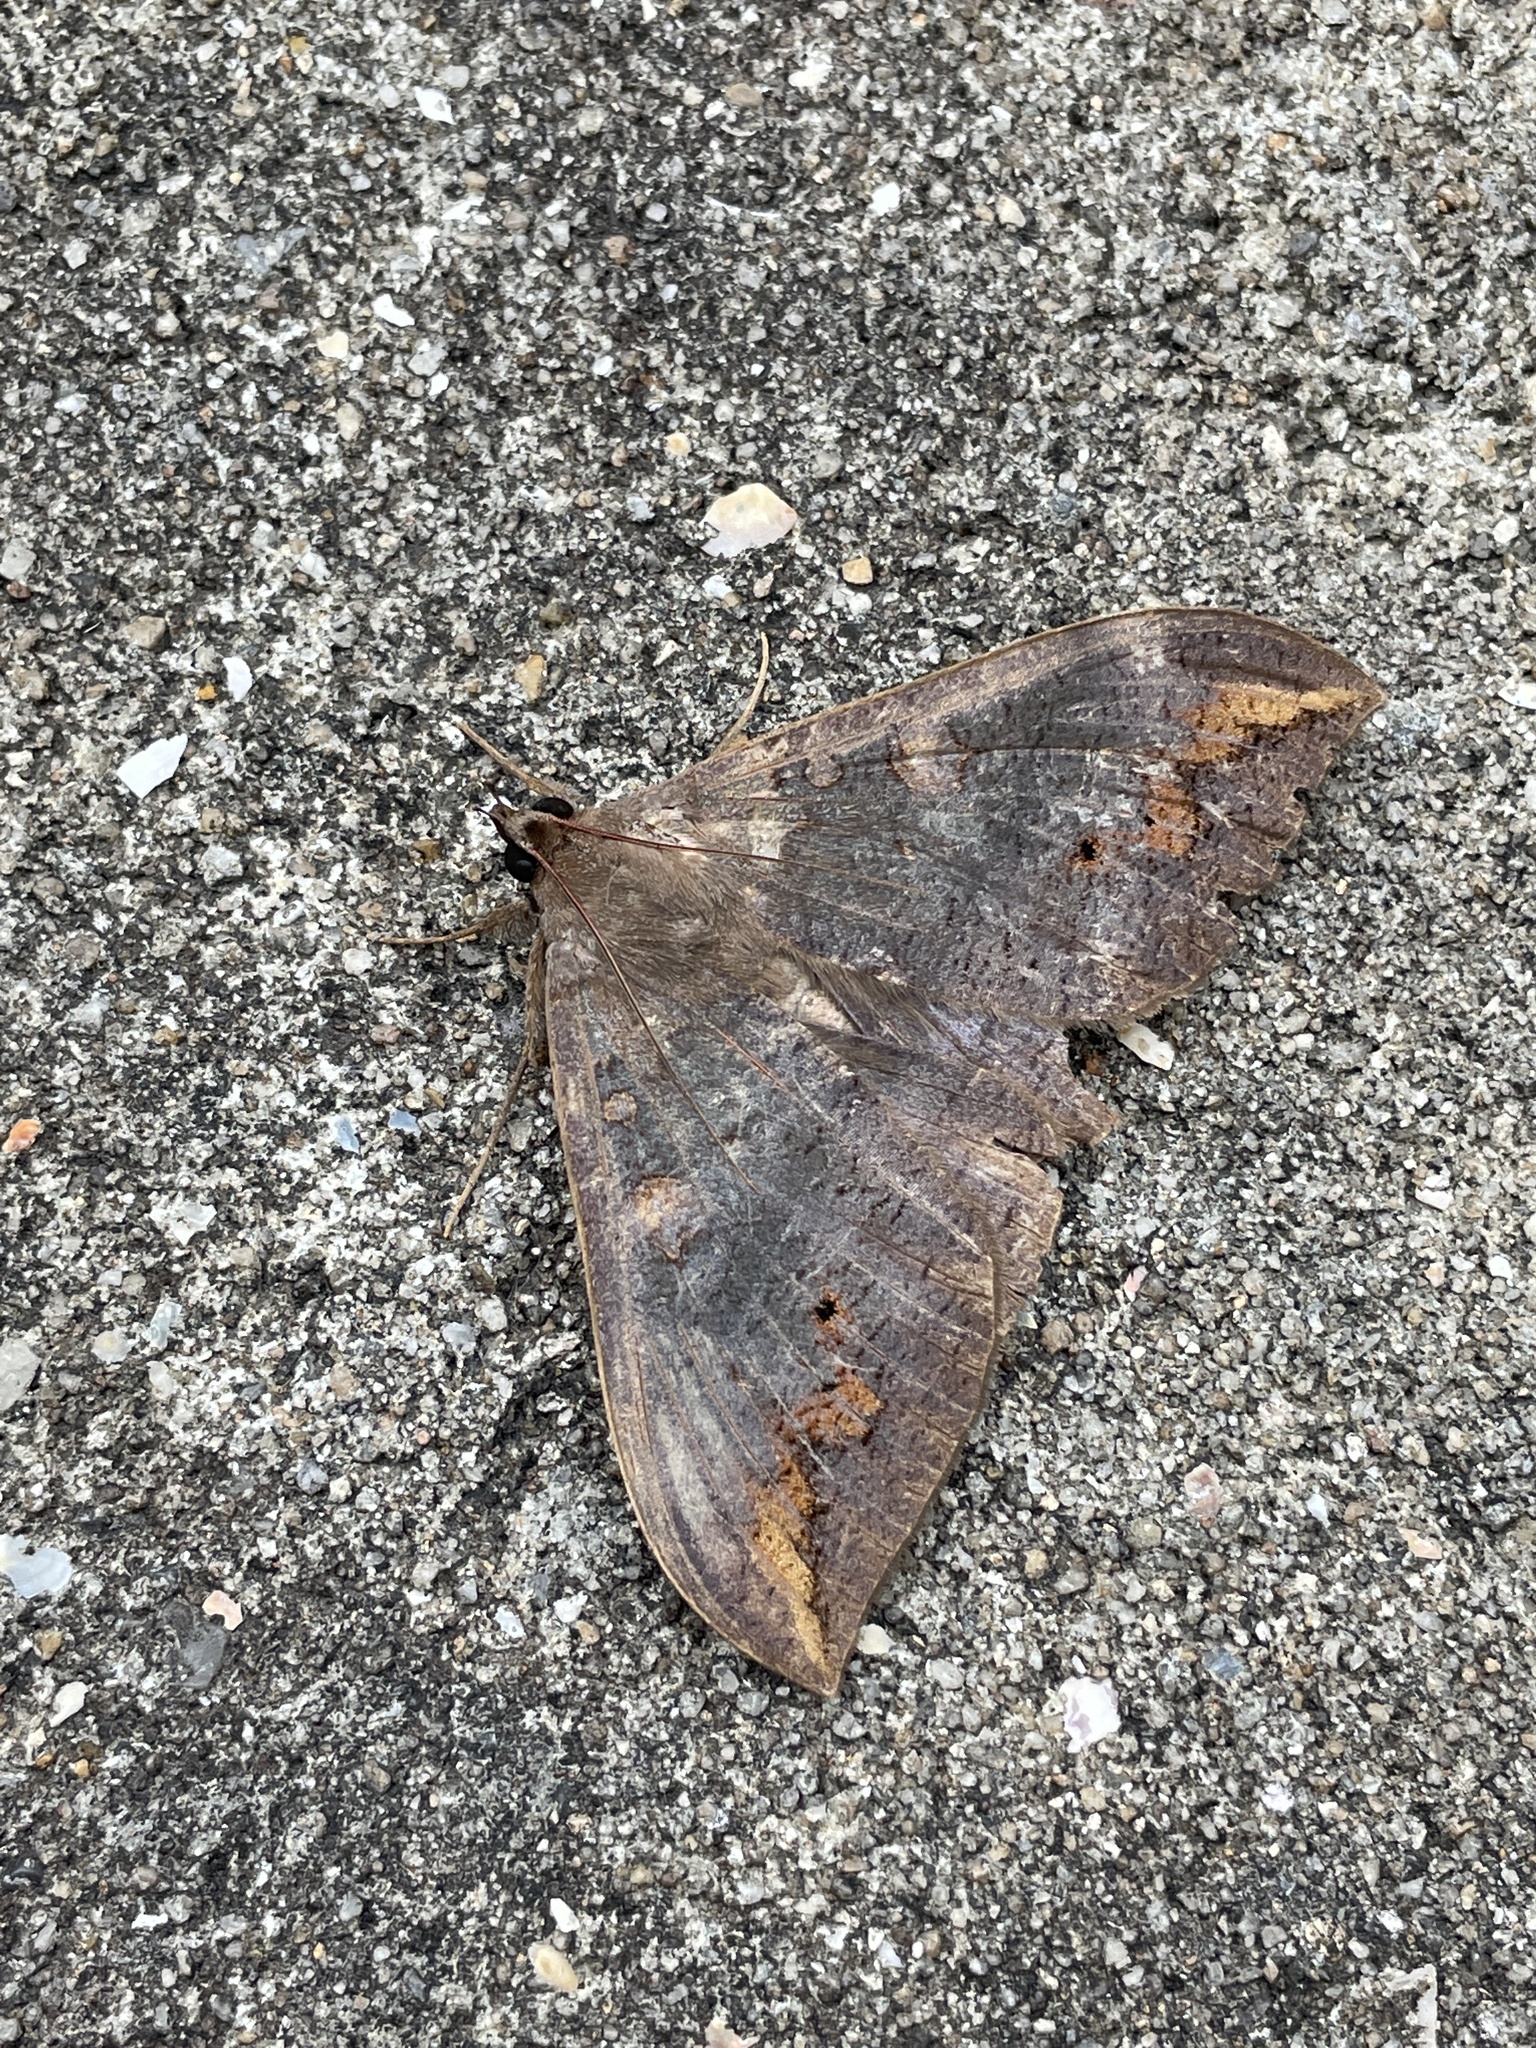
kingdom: Animalia
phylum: Arthropoda
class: Insecta
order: Lepidoptera
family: Erebidae
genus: Ischyja
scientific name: Ischyja ferrifracta
